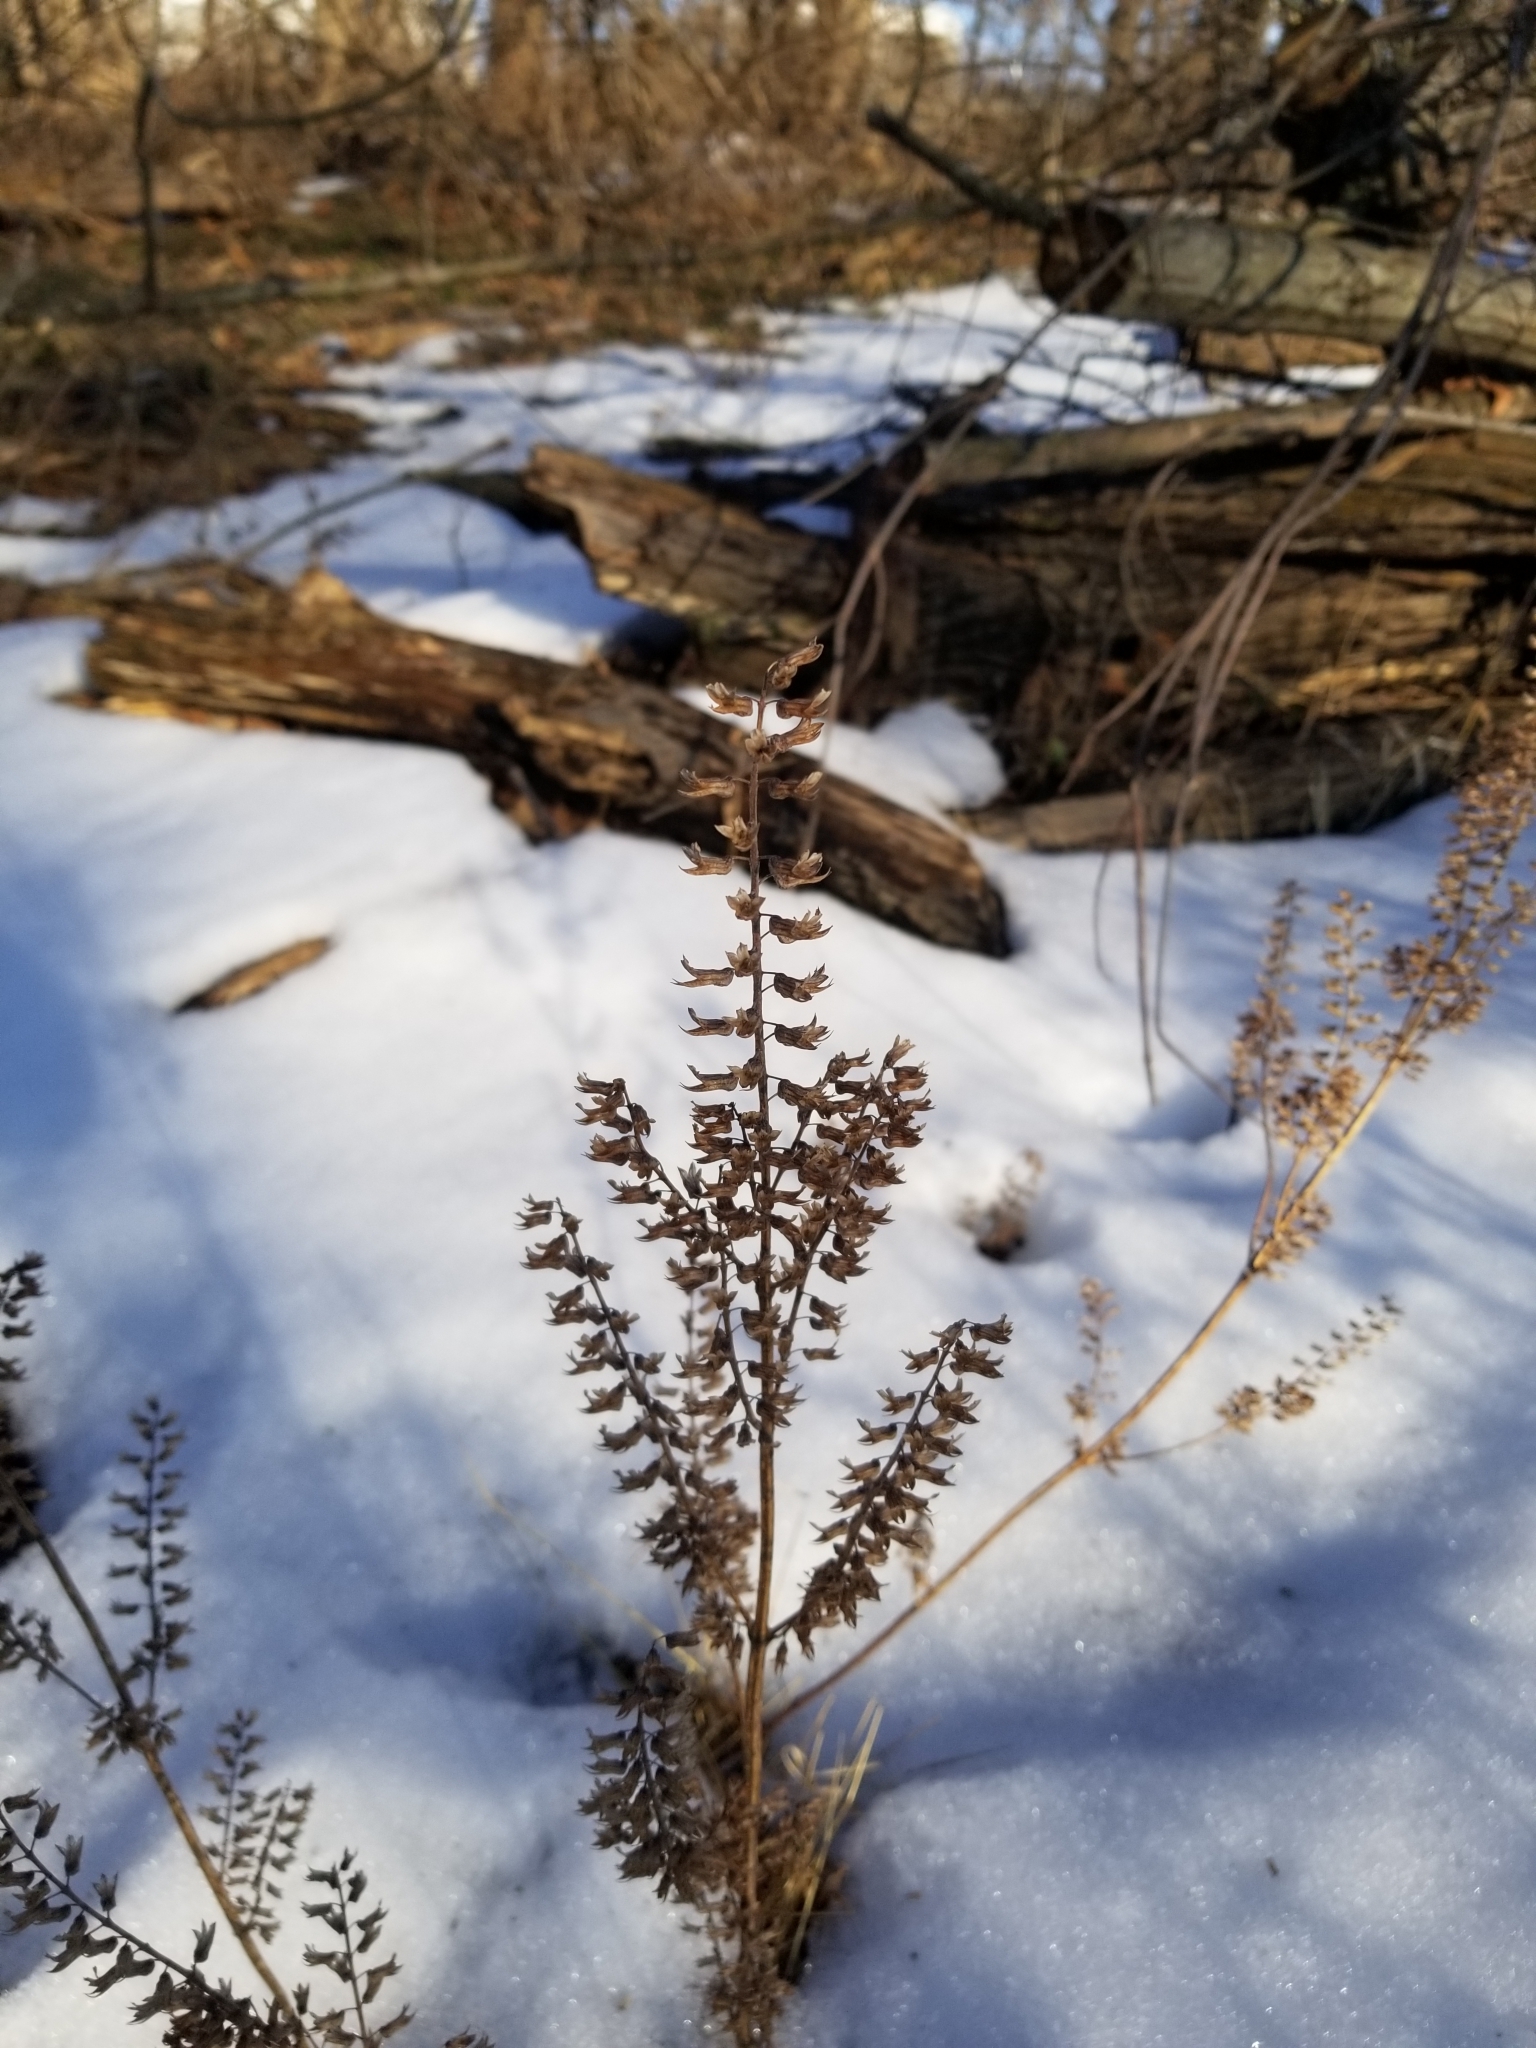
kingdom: Plantae
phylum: Tracheophyta
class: Magnoliopsida
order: Lamiales
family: Lamiaceae
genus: Perilla
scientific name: Perilla frutescens
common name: Perilla
